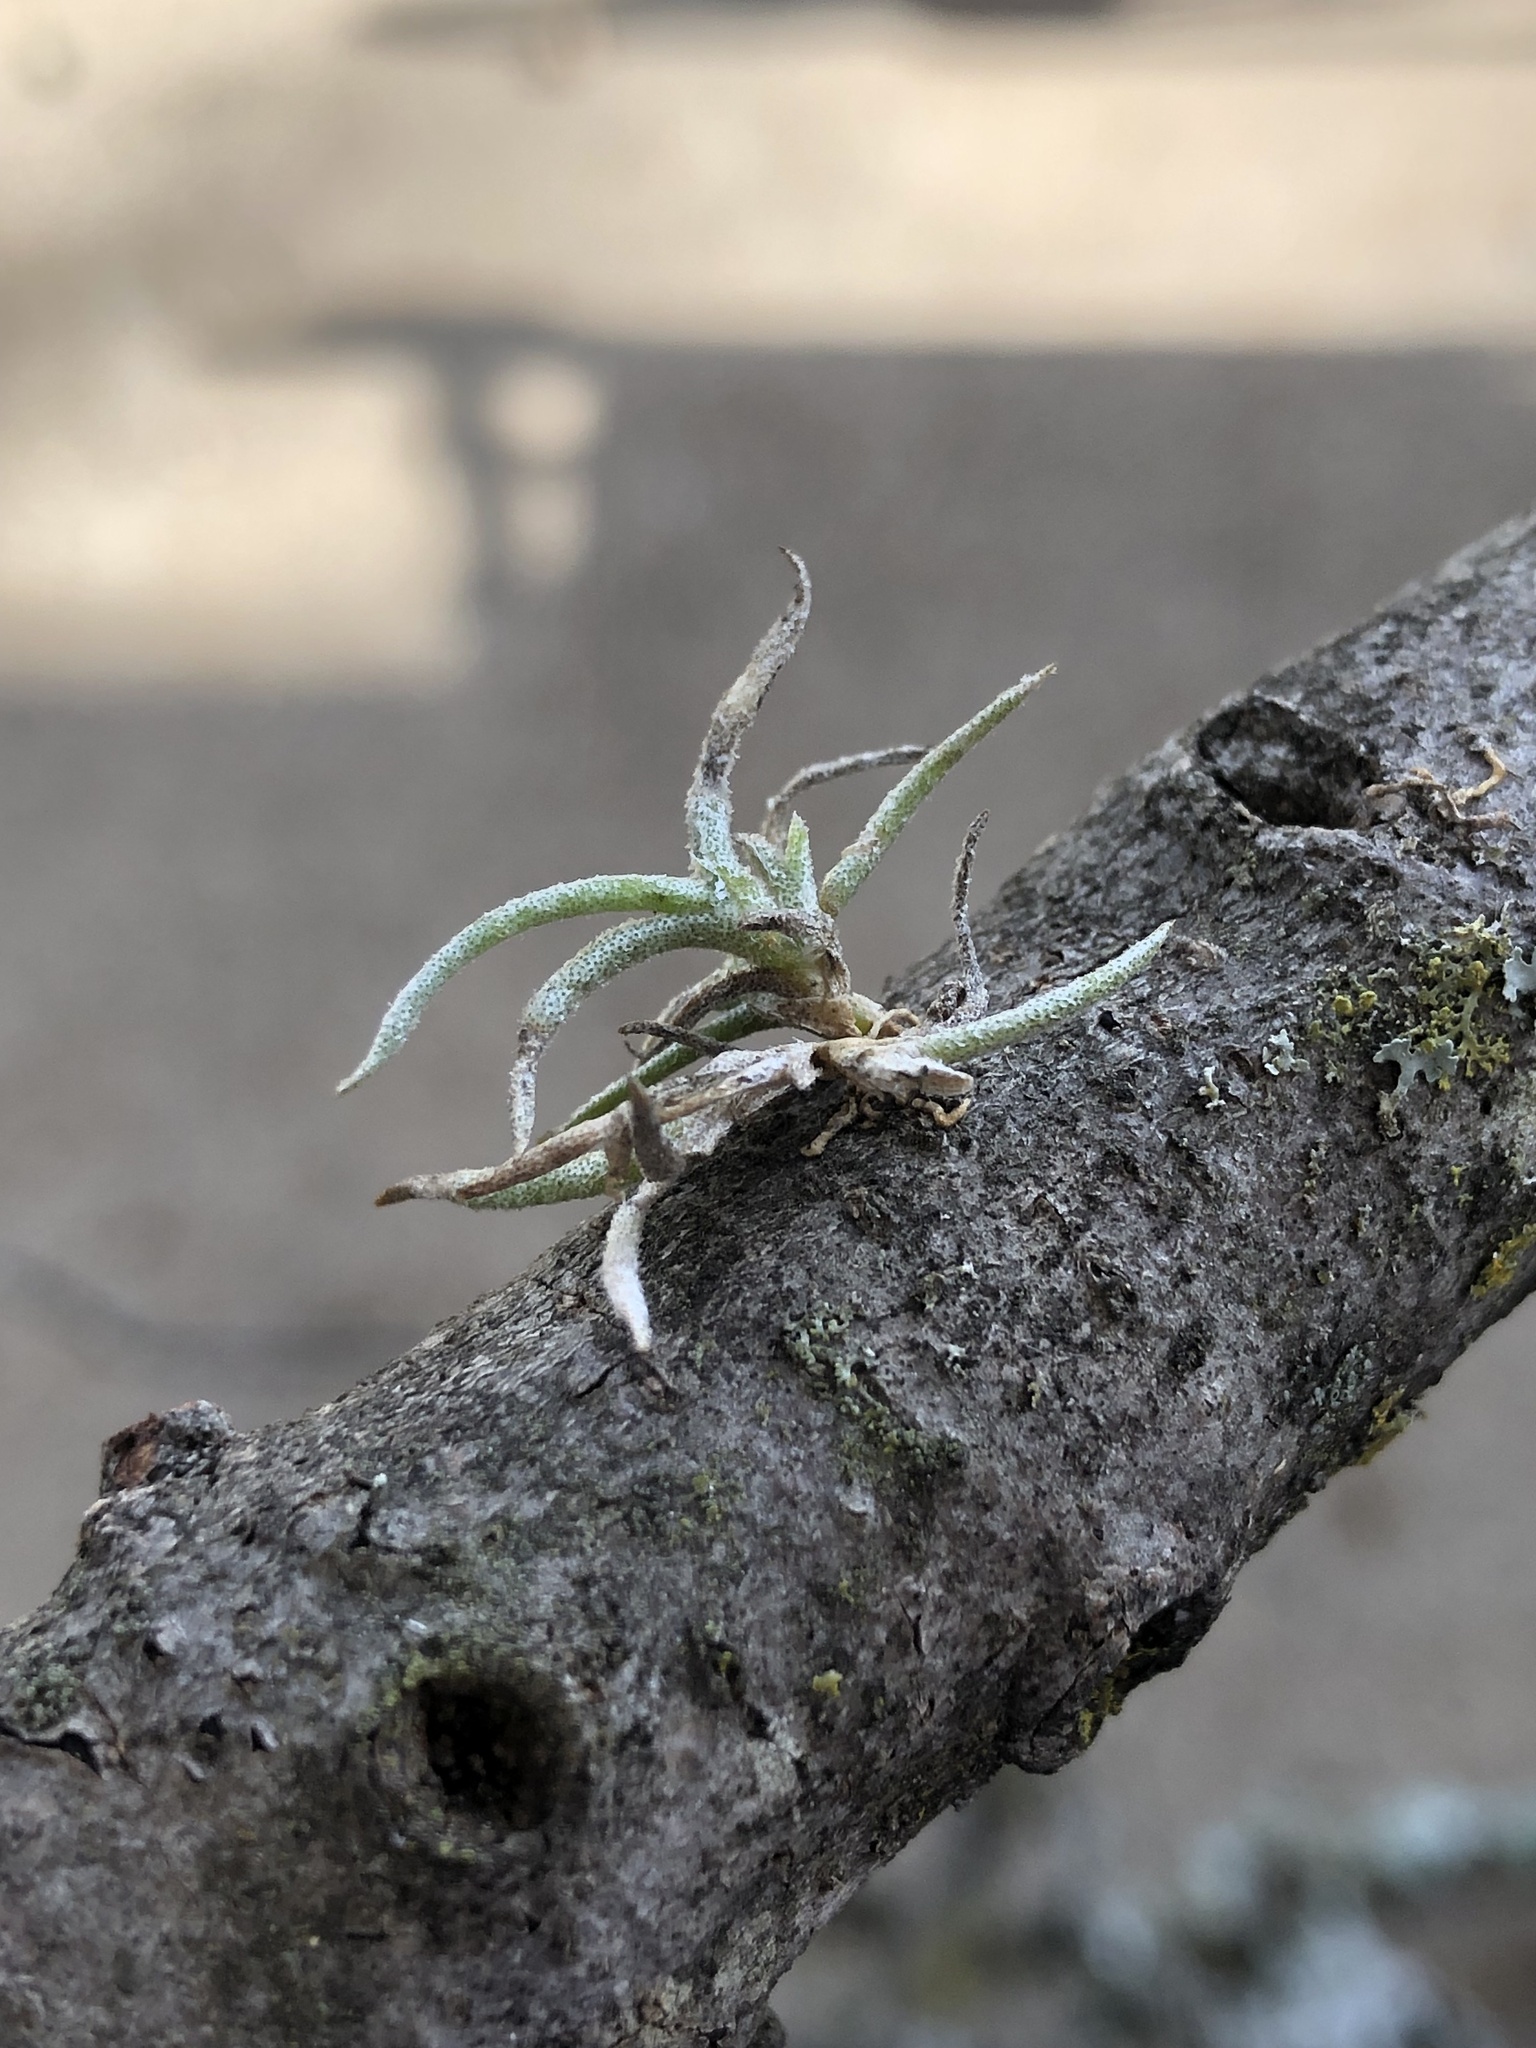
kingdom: Plantae
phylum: Tracheophyta
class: Liliopsida
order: Poales
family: Bromeliaceae
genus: Tillandsia
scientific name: Tillandsia recurvata
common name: Small ballmoss
